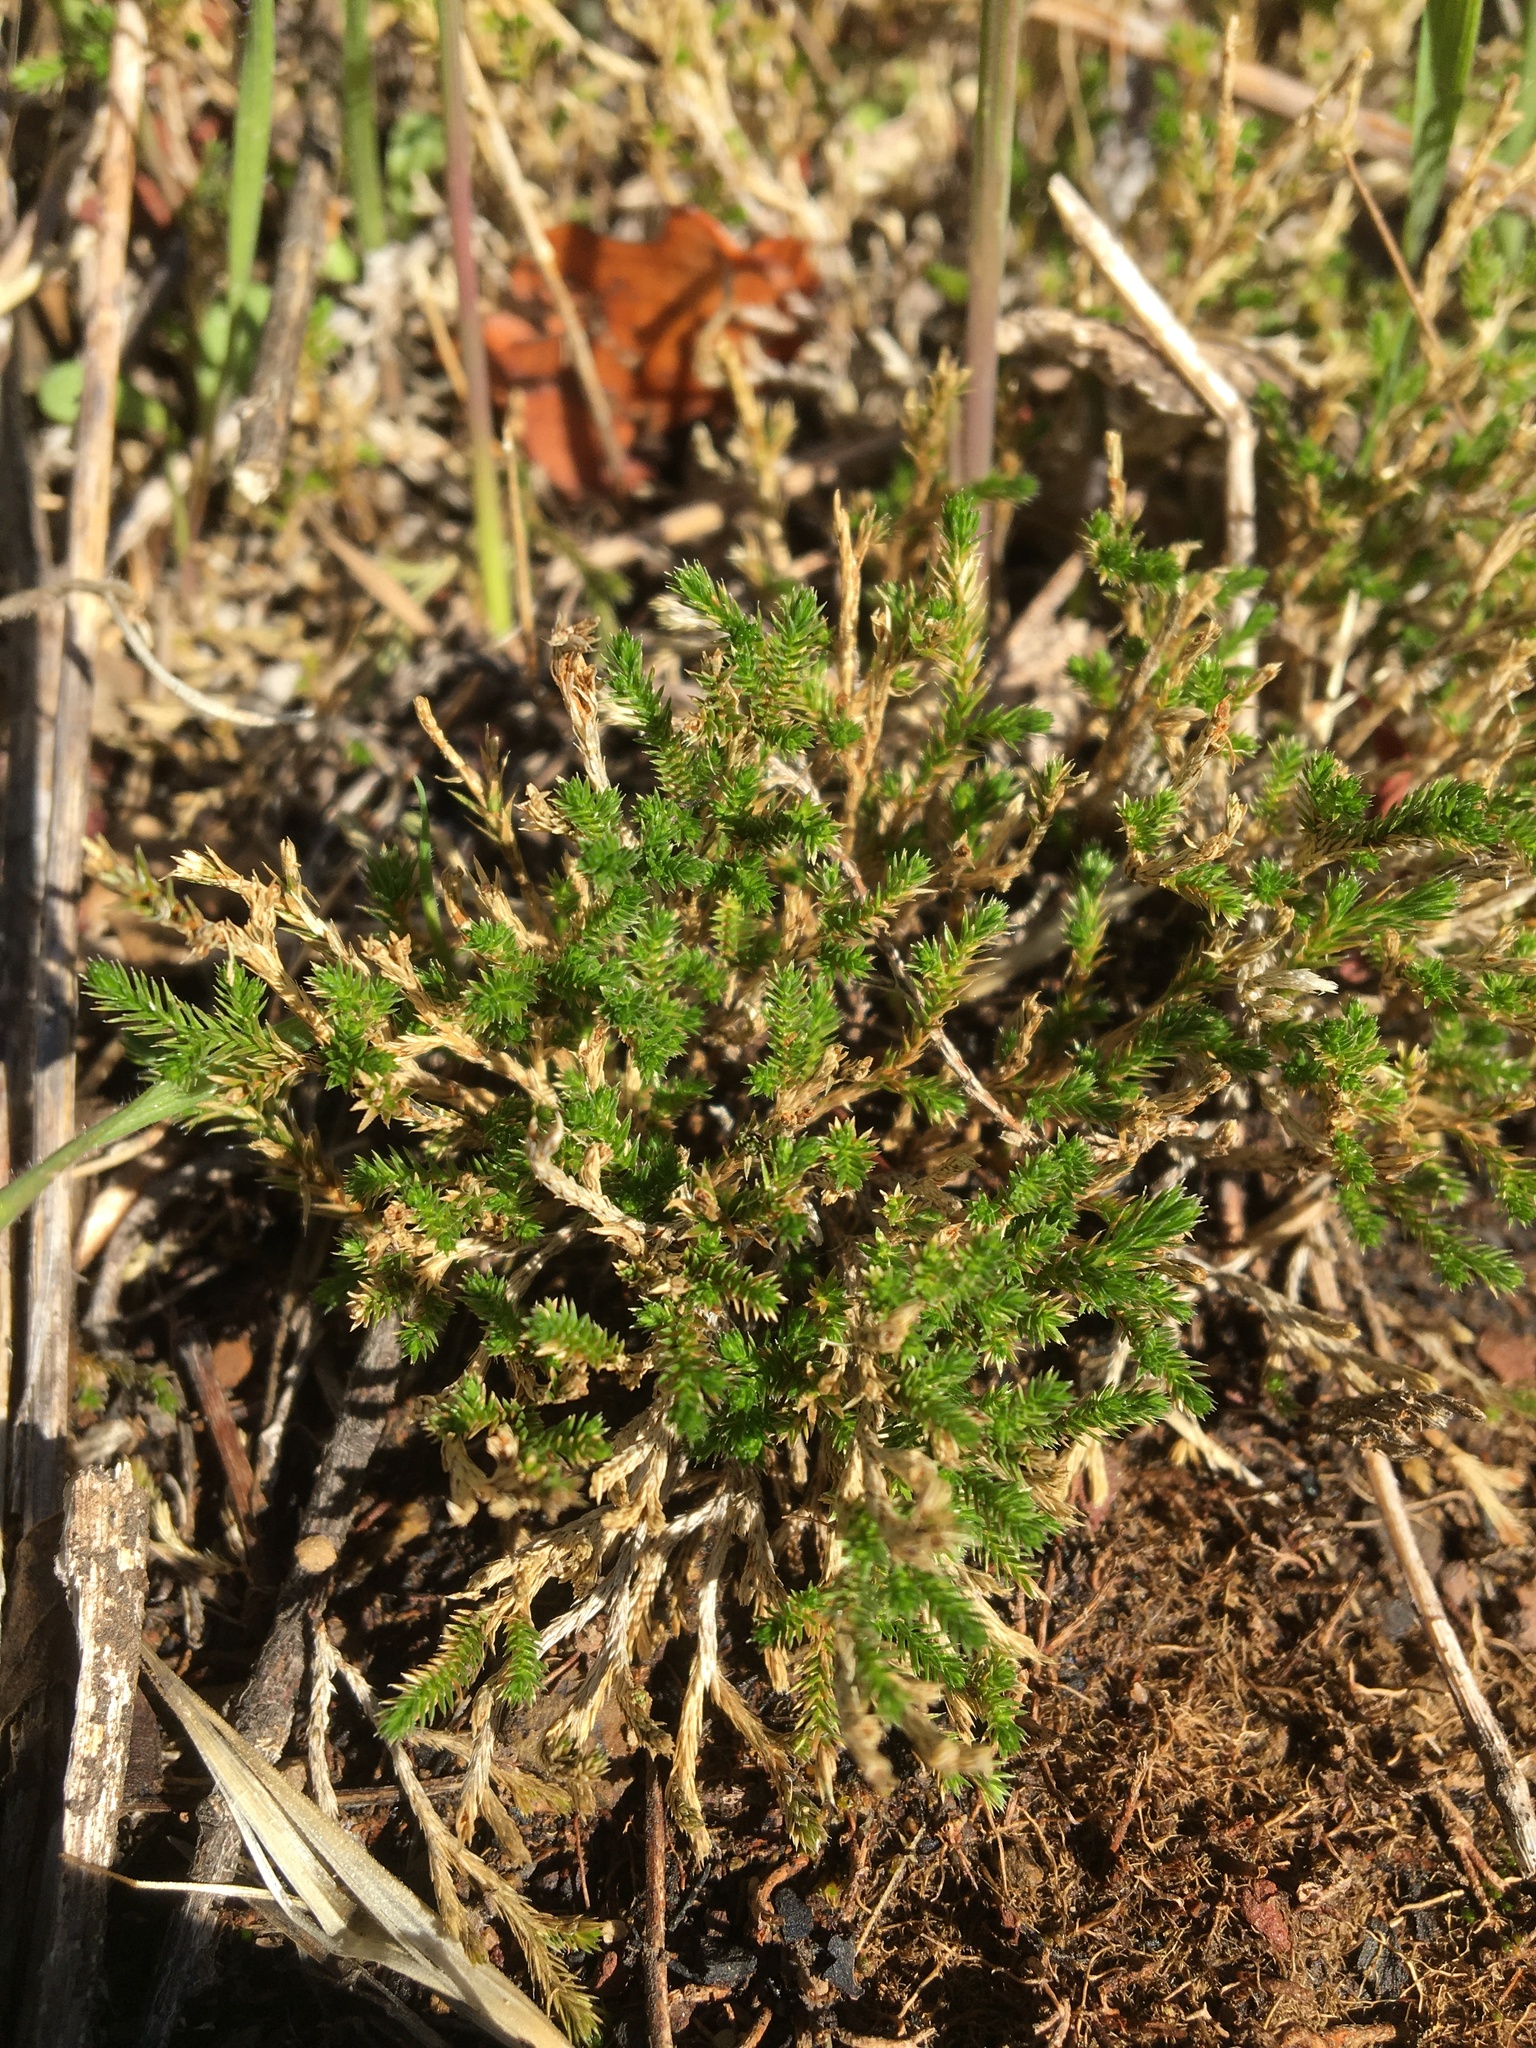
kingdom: Plantae
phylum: Tracheophyta
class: Lycopodiopsida
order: Selaginellales
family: Selaginellaceae
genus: Selaginella
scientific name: Selaginella bigelovii
